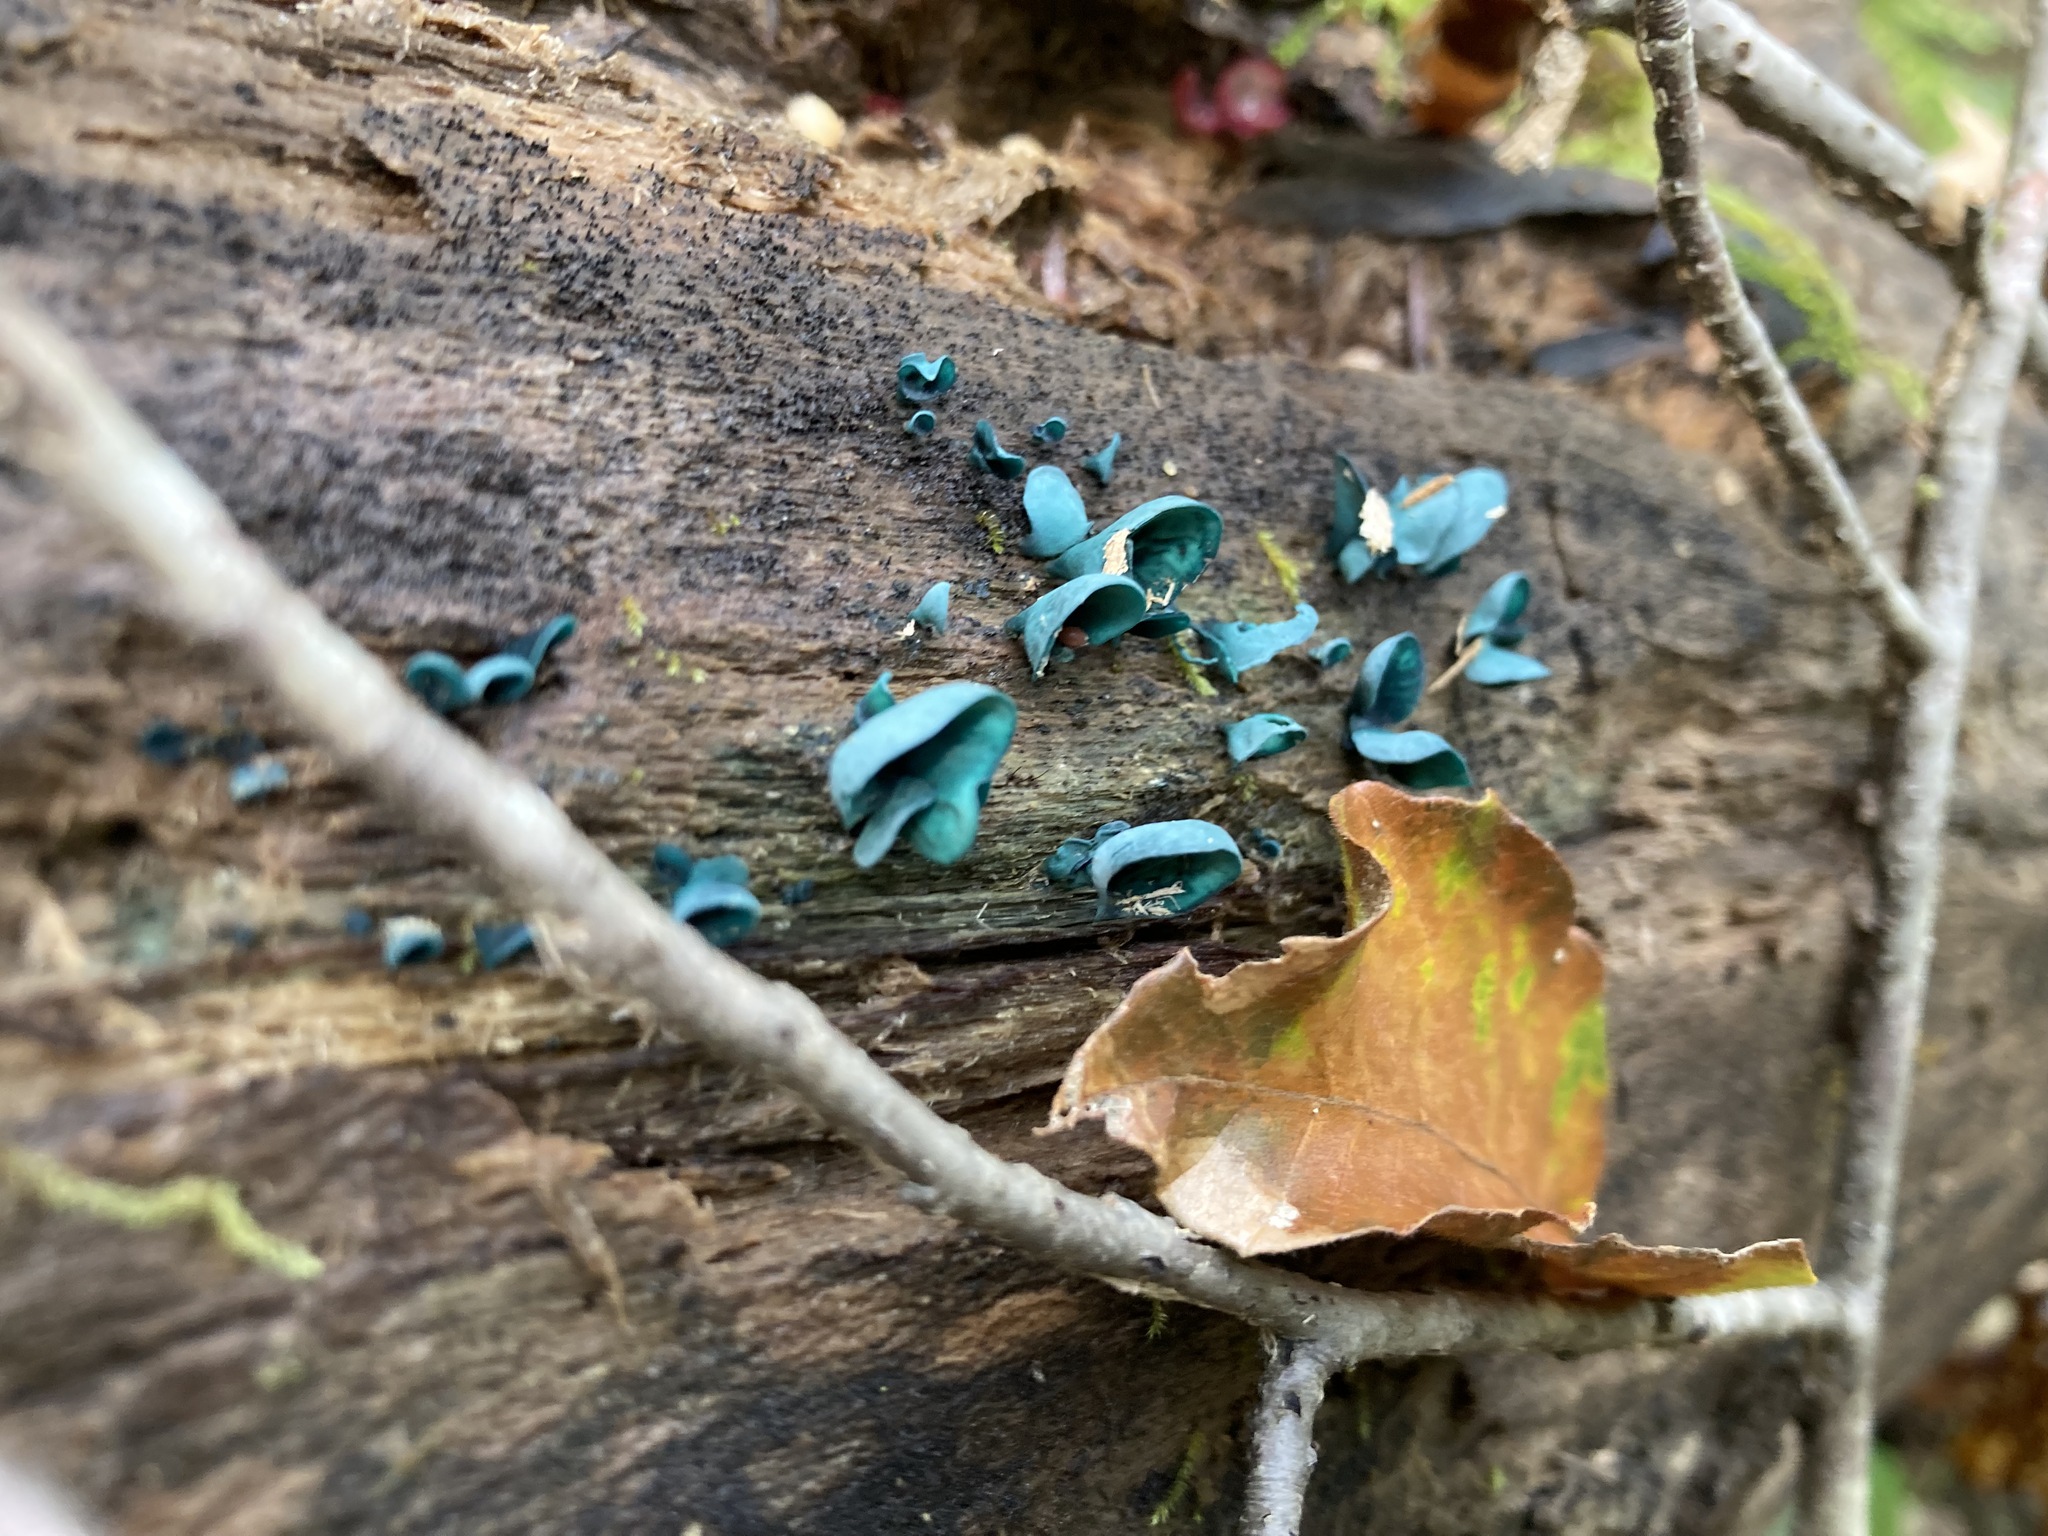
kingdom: Fungi
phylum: Ascomycota
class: Leotiomycetes
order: Helotiales
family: Chlorociboriaceae
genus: Chlorociboria
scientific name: Chlorociboria aeruginascens
